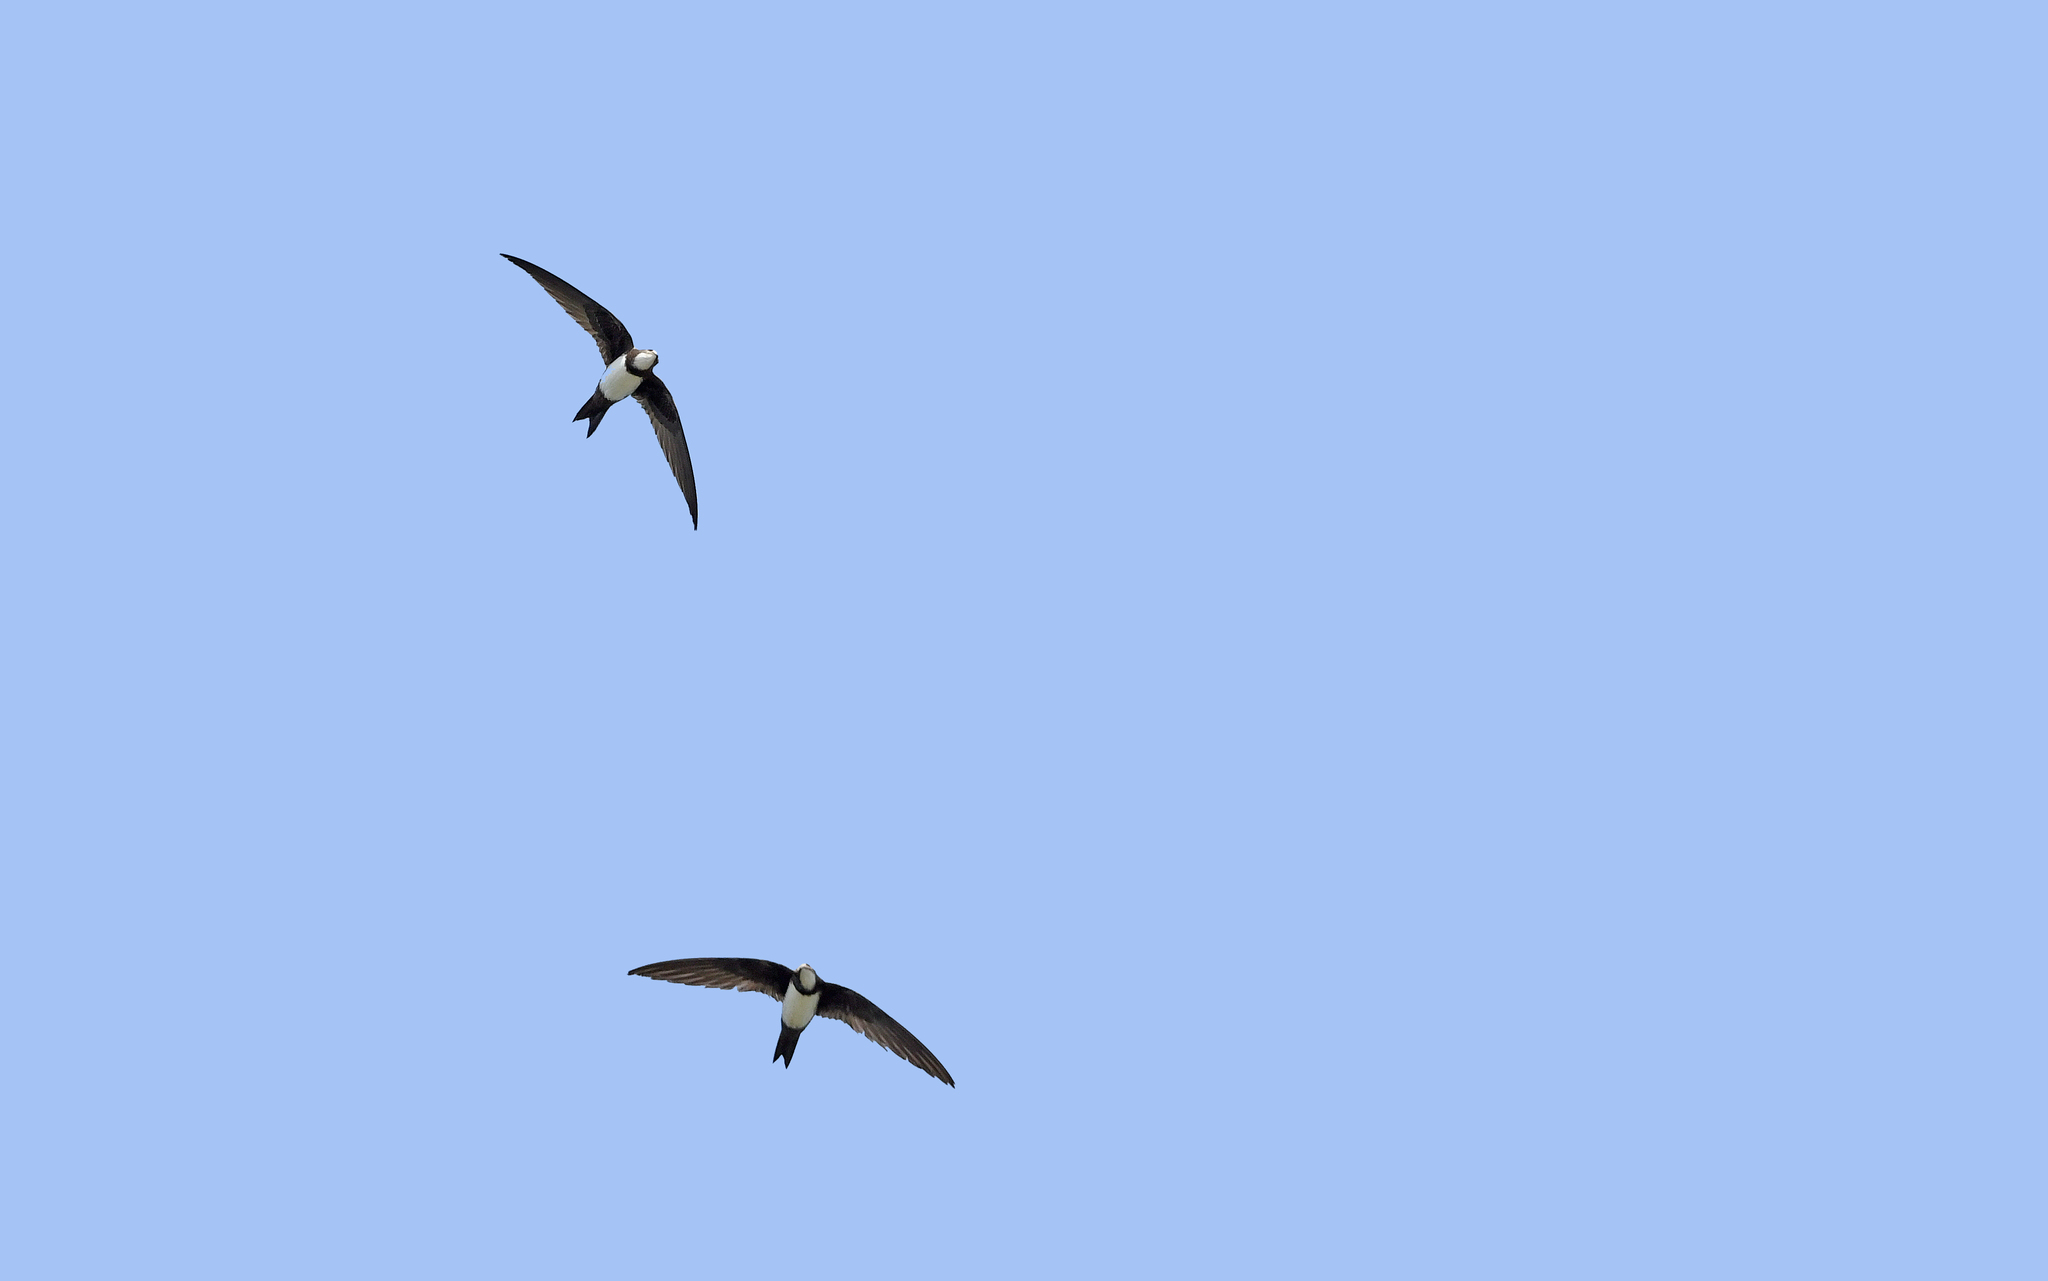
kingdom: Animalia
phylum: Chordata
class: Aves
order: Apodiformes
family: Apodidae
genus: Tachymarptis
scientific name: Tachymarptis melba
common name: Alpine swift
